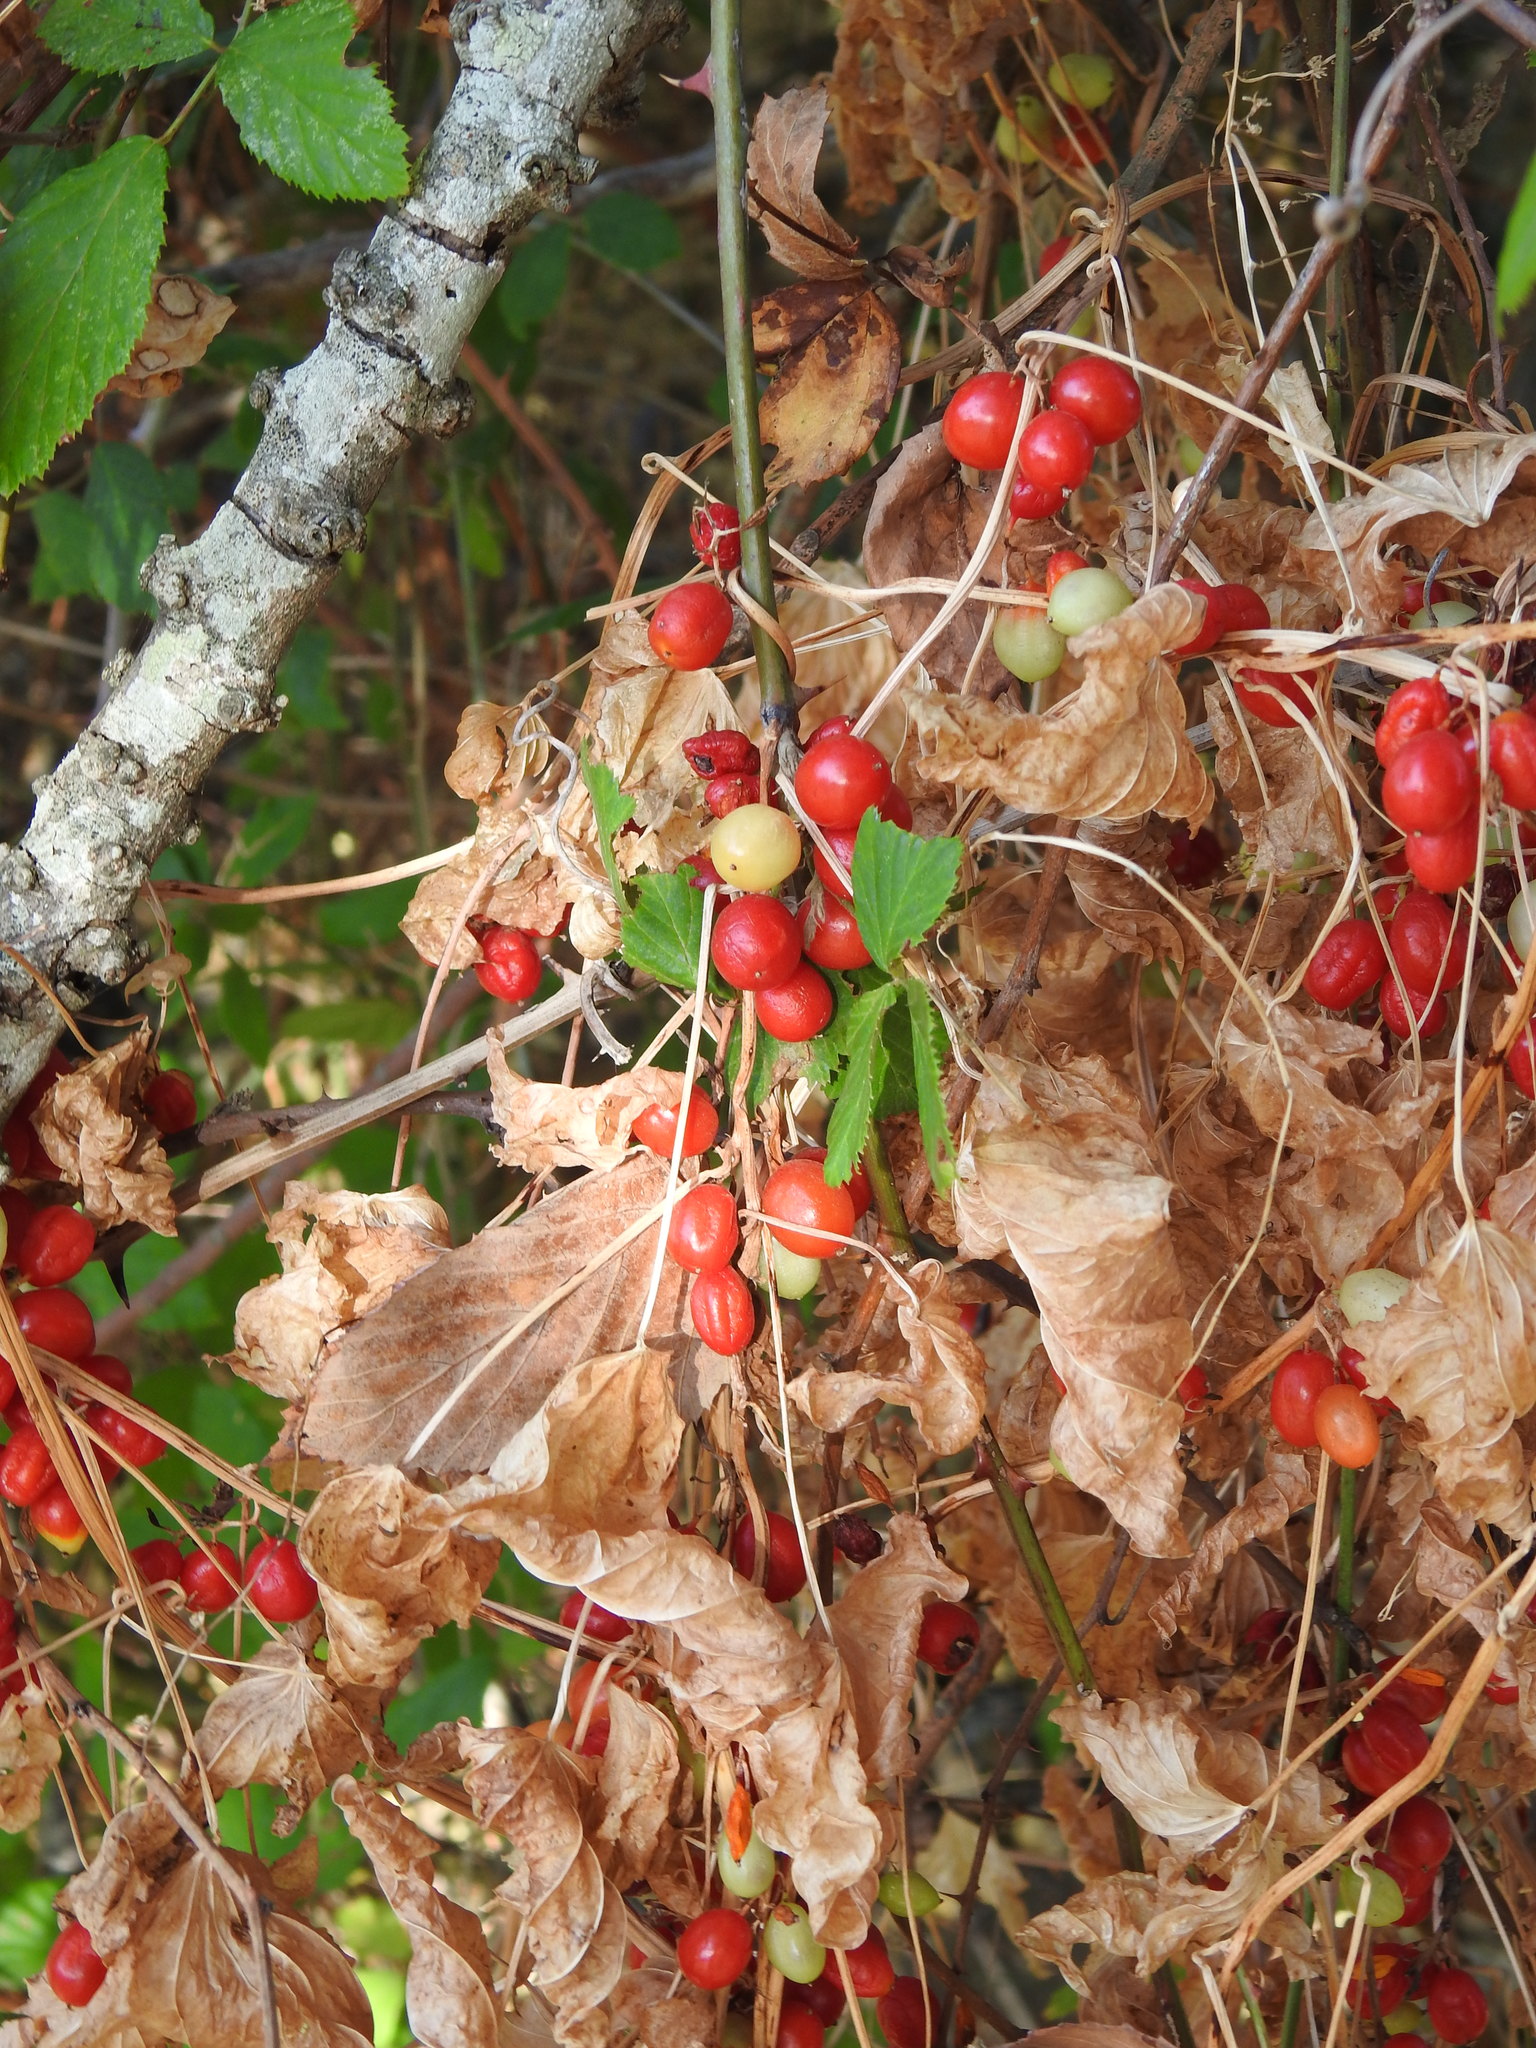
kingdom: Plantae
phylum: Tracheophyta
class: Liliopsida
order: Dioscoreales
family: Dioscoreaceae
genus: Dioscorea
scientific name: Dioscorea communis
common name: Black-bindweed
